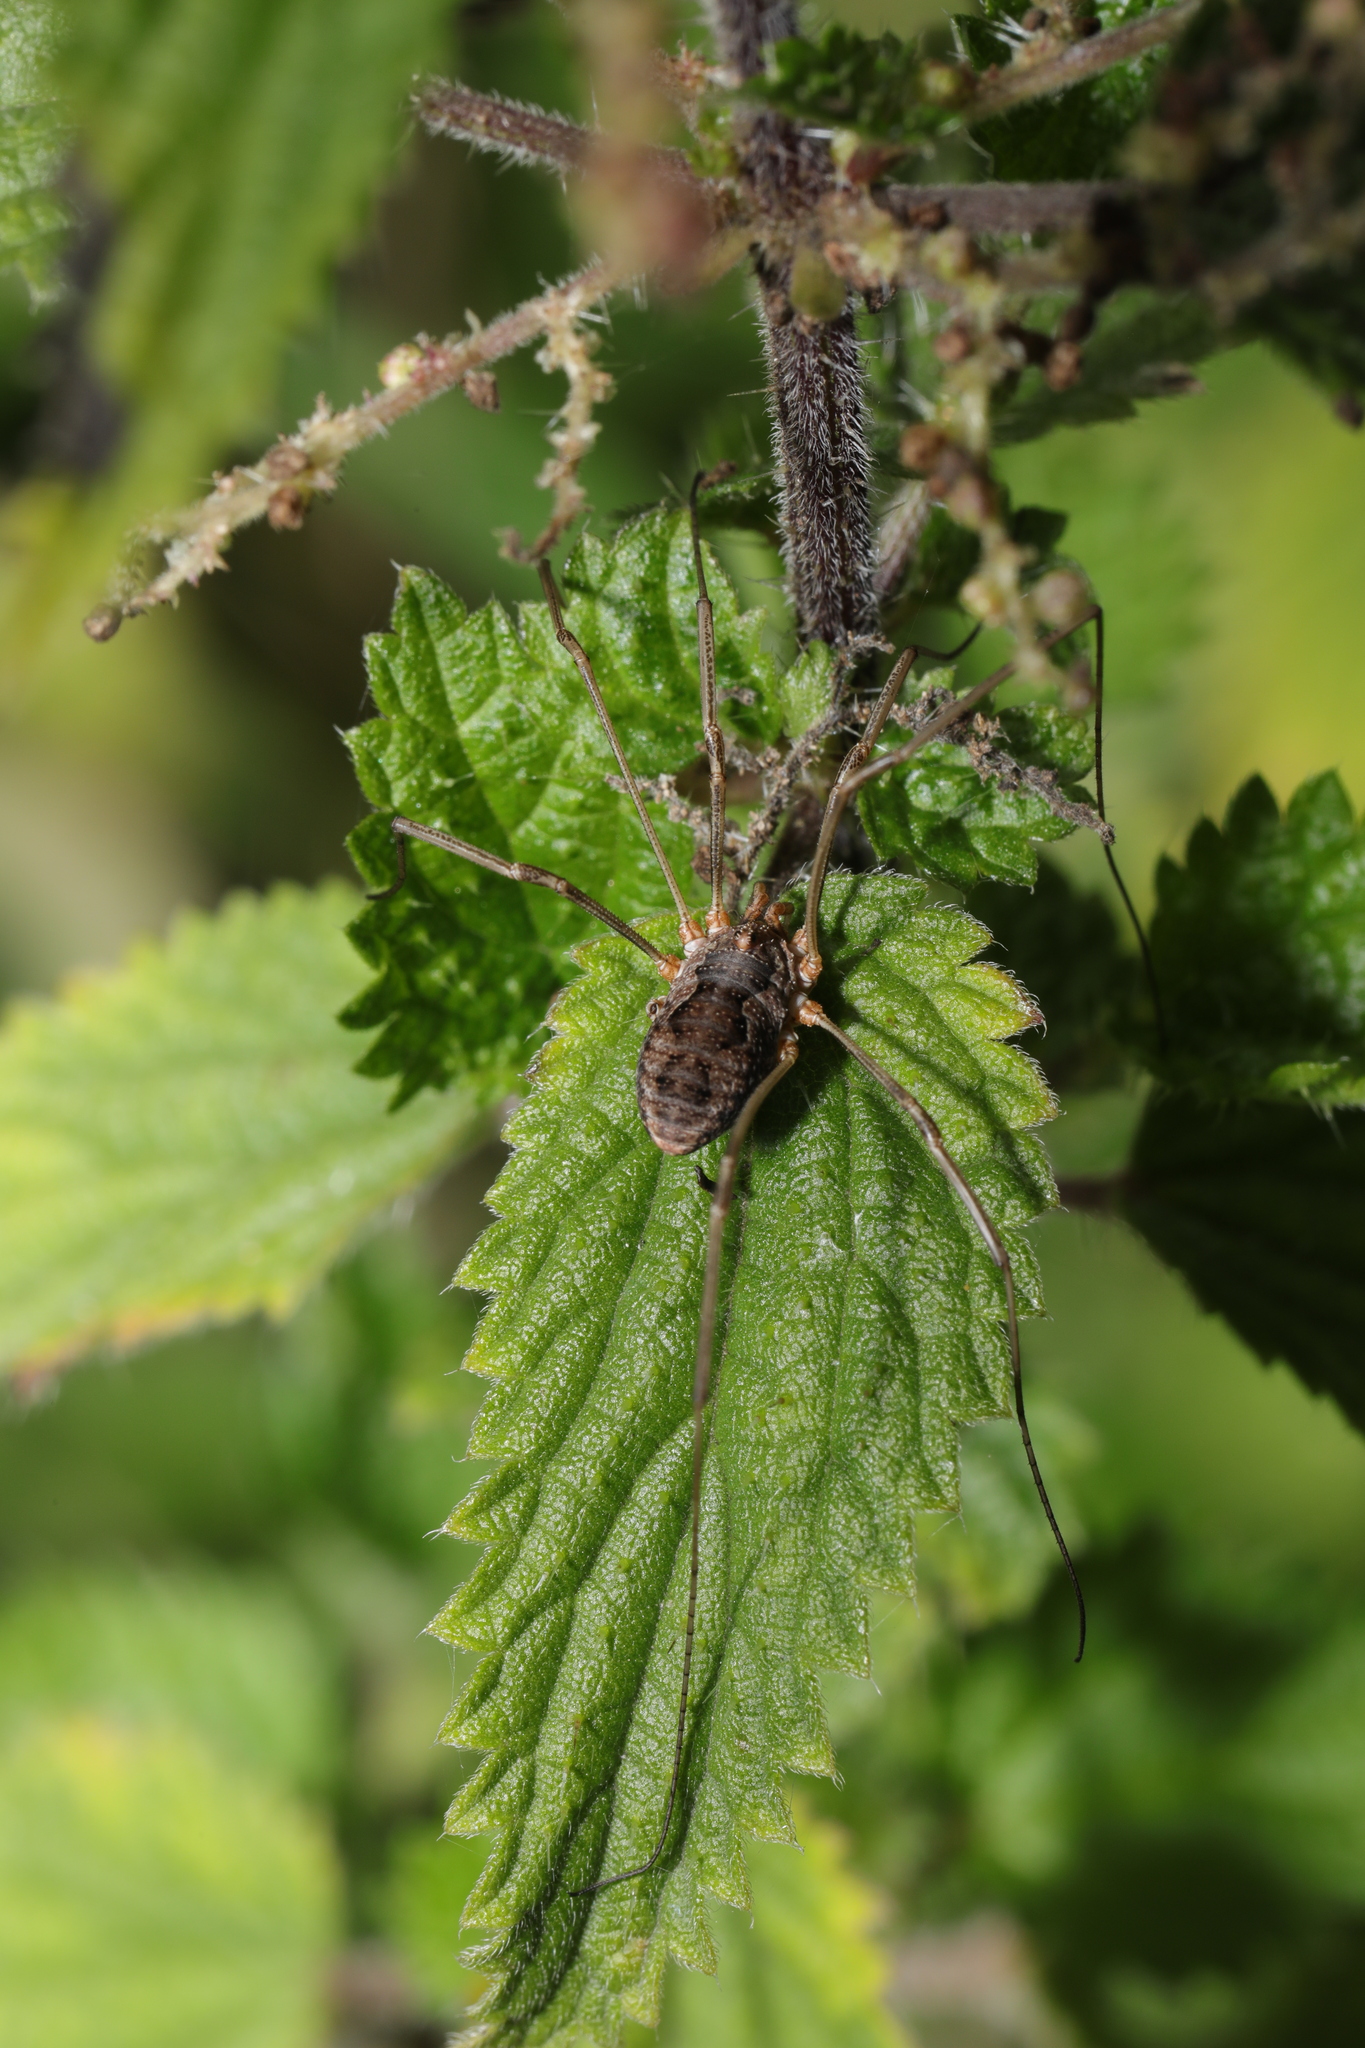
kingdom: Animalia
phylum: Arthropoda
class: Arachnida
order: Opiliones
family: Phalangiidae
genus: Phalangium
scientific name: Phalangium opilio
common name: Daddy longleg
